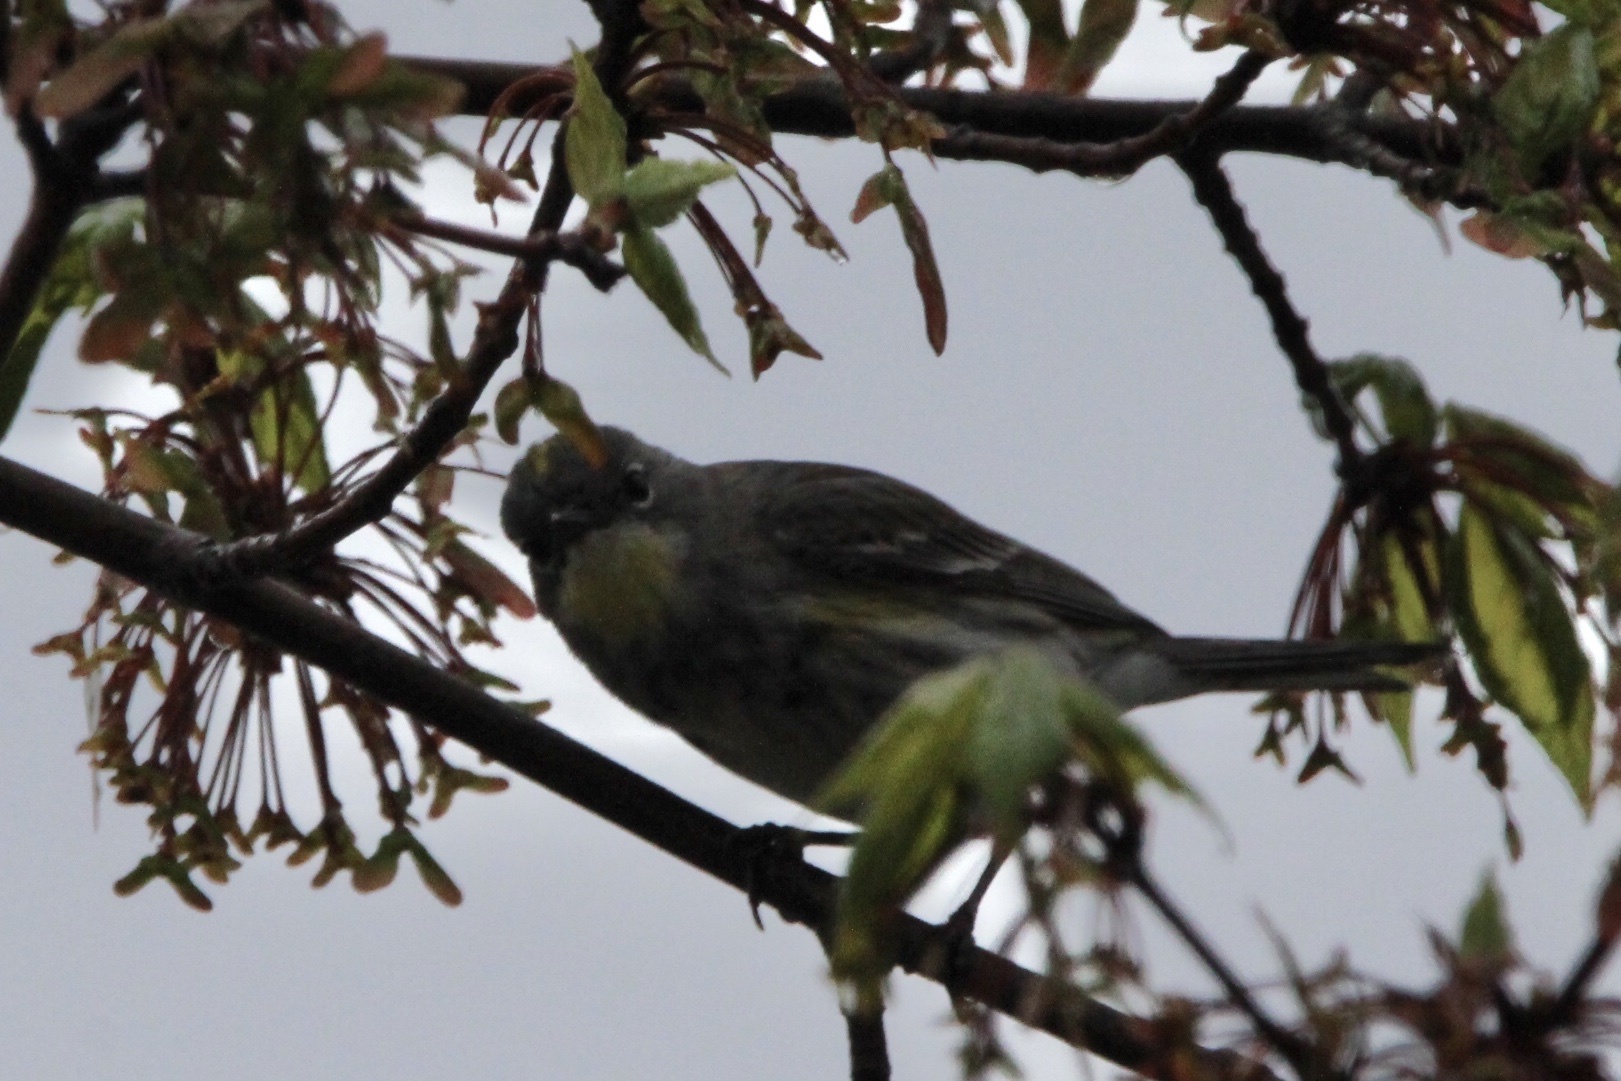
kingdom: Animalia
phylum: Chordata
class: Aves
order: Passeriformes
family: Parulidae
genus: Setophaga
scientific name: Setophaga auduboni
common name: Audubon's warbler
